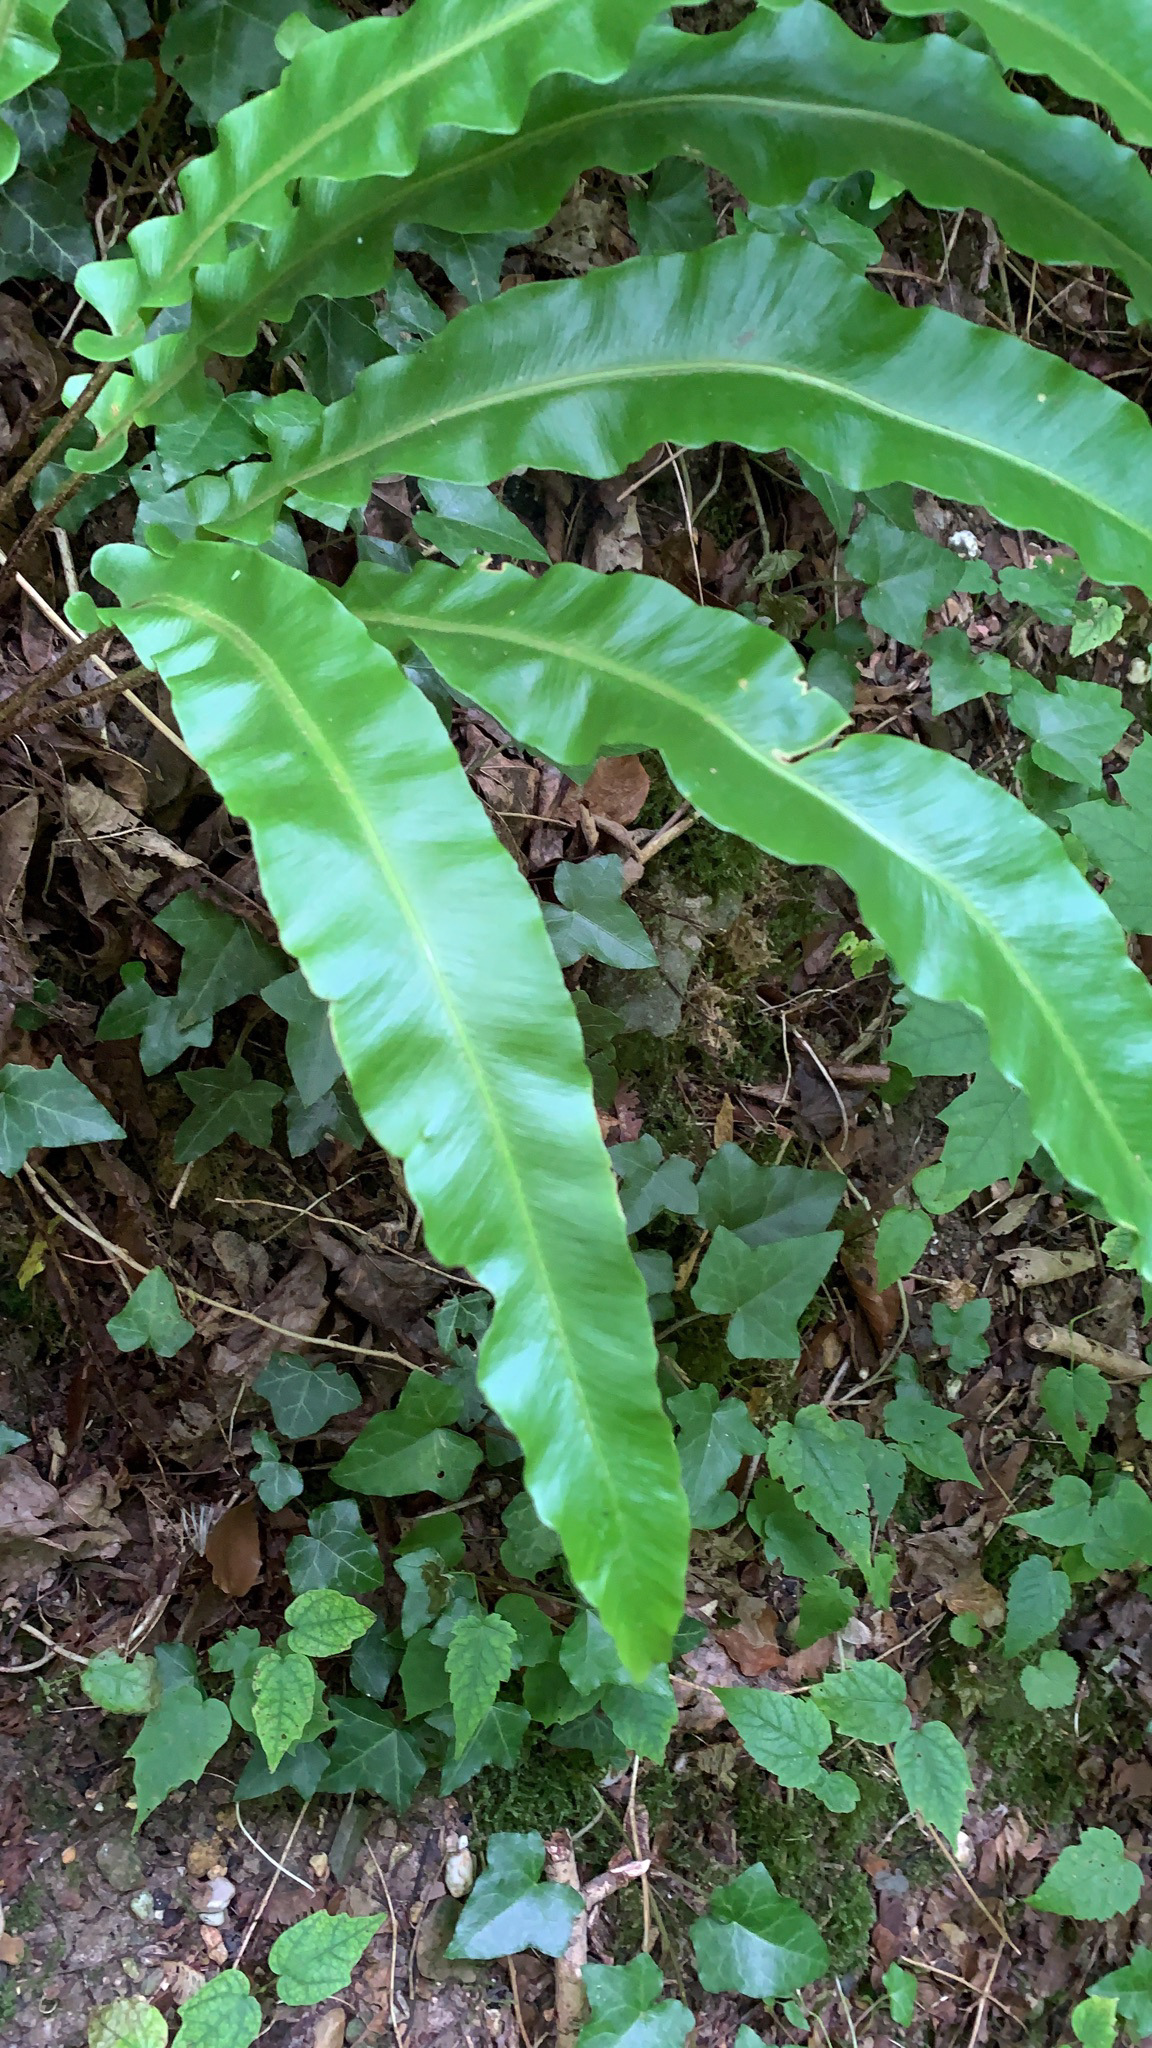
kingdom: Plantae
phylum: Tracheophyta
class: Polypodiopsida
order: Polypodiales
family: Aspleniaceae
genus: Asplenium
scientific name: Asplenium scolopendrium
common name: Hart's-tongue fern
